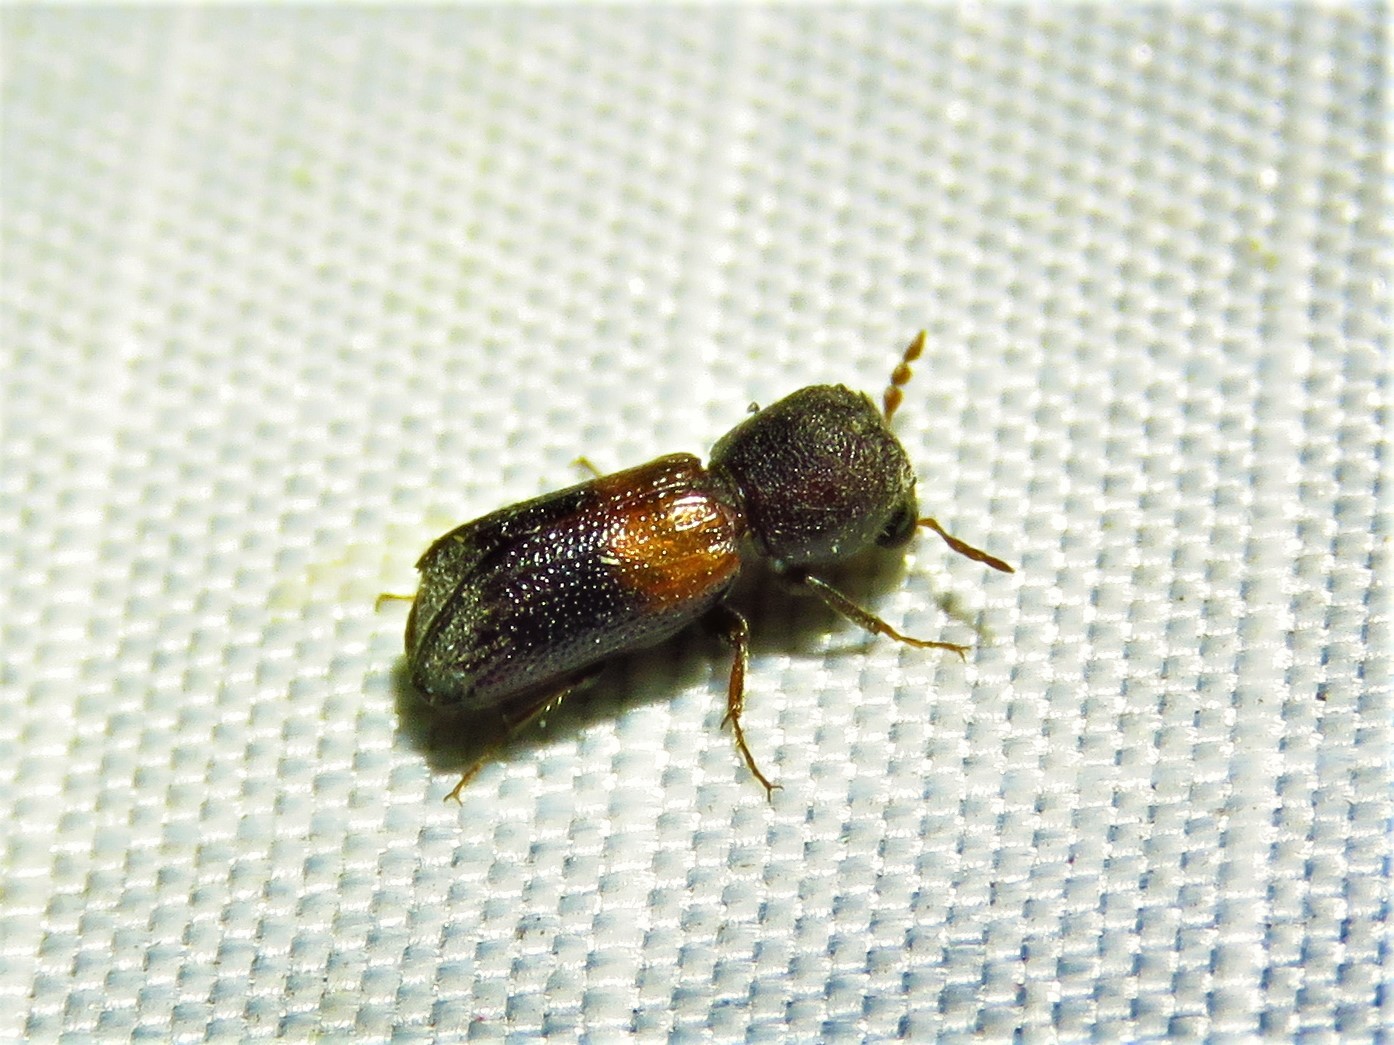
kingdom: Animalia
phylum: Arthropoda
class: Insecta
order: Coleoptera
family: Bostrichidae
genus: Xylobiops
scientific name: Xylobiops basilaris
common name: Red-shouldered bostrichid
